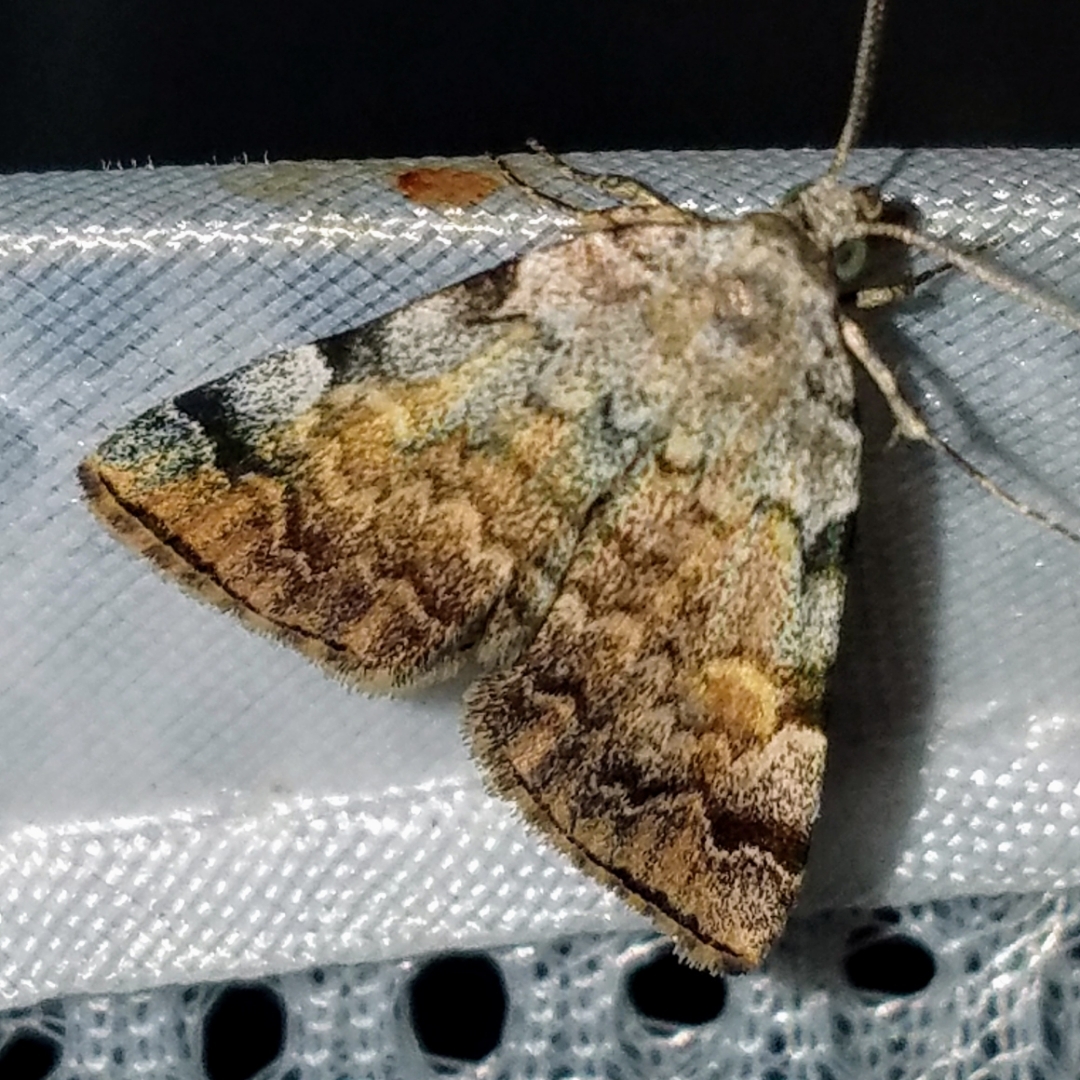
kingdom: Animalia
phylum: Arthropoda
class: Insecta
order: Lepidoptera
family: Erebidae
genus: Idia
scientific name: Idia americalis
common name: American idia moth
